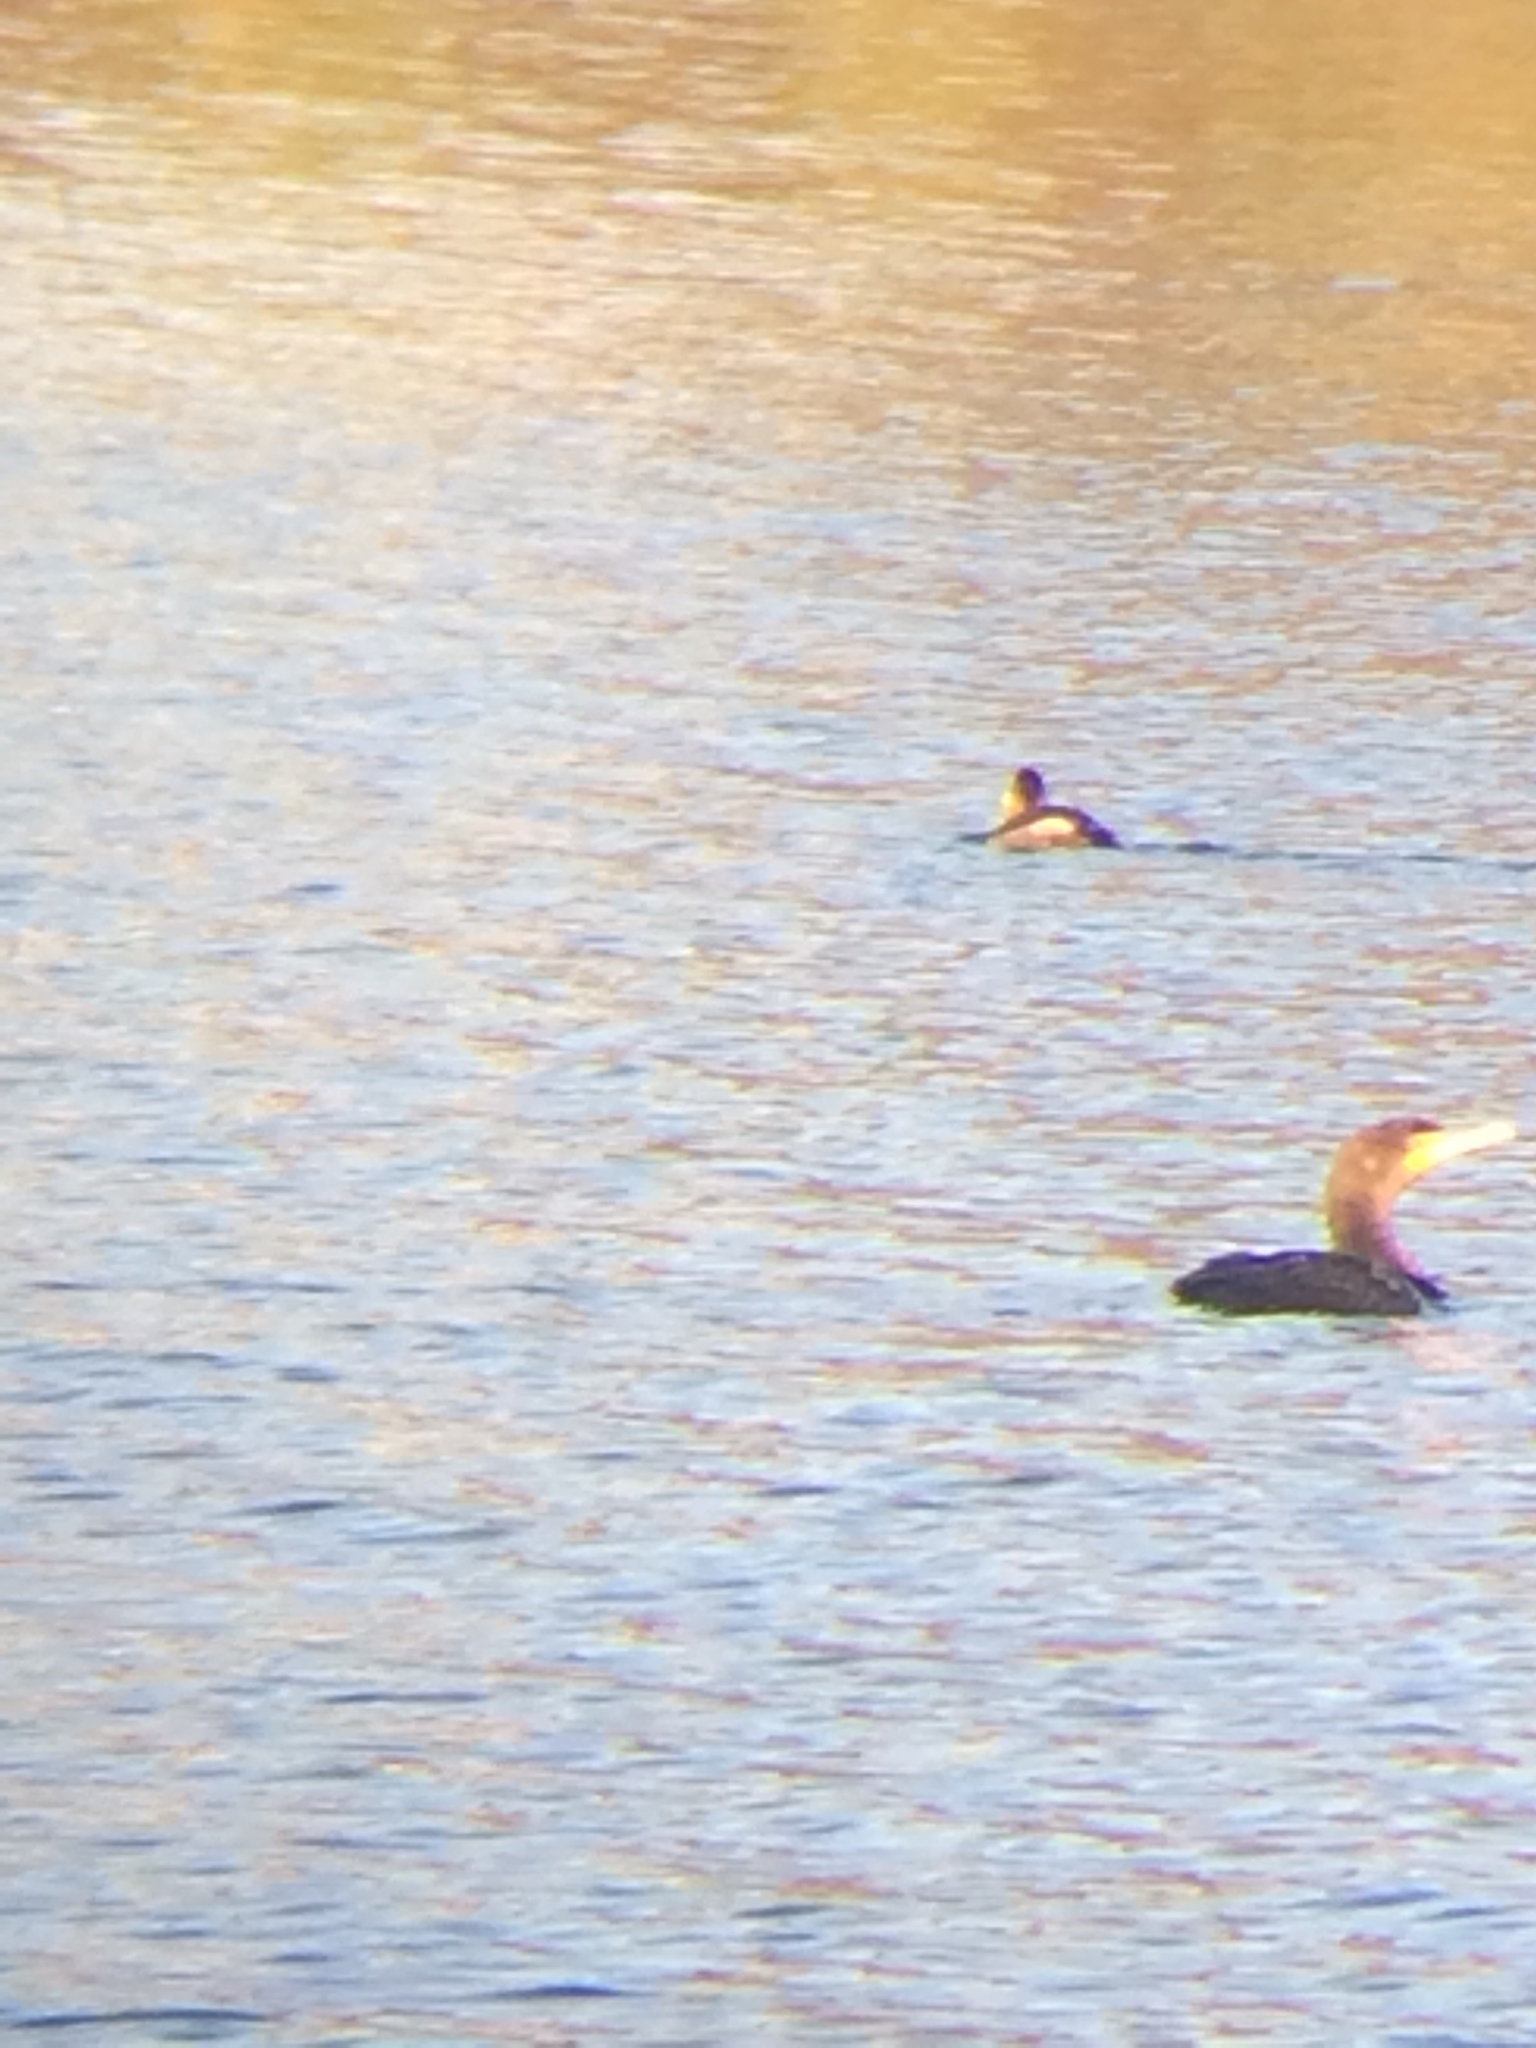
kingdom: Animalia
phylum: Chordata
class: Aves
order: Suliformes
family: Phalacrocoracidae
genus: Phalacrocorax
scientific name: Phalacrocorax auritus
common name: Double-crested cormorant
